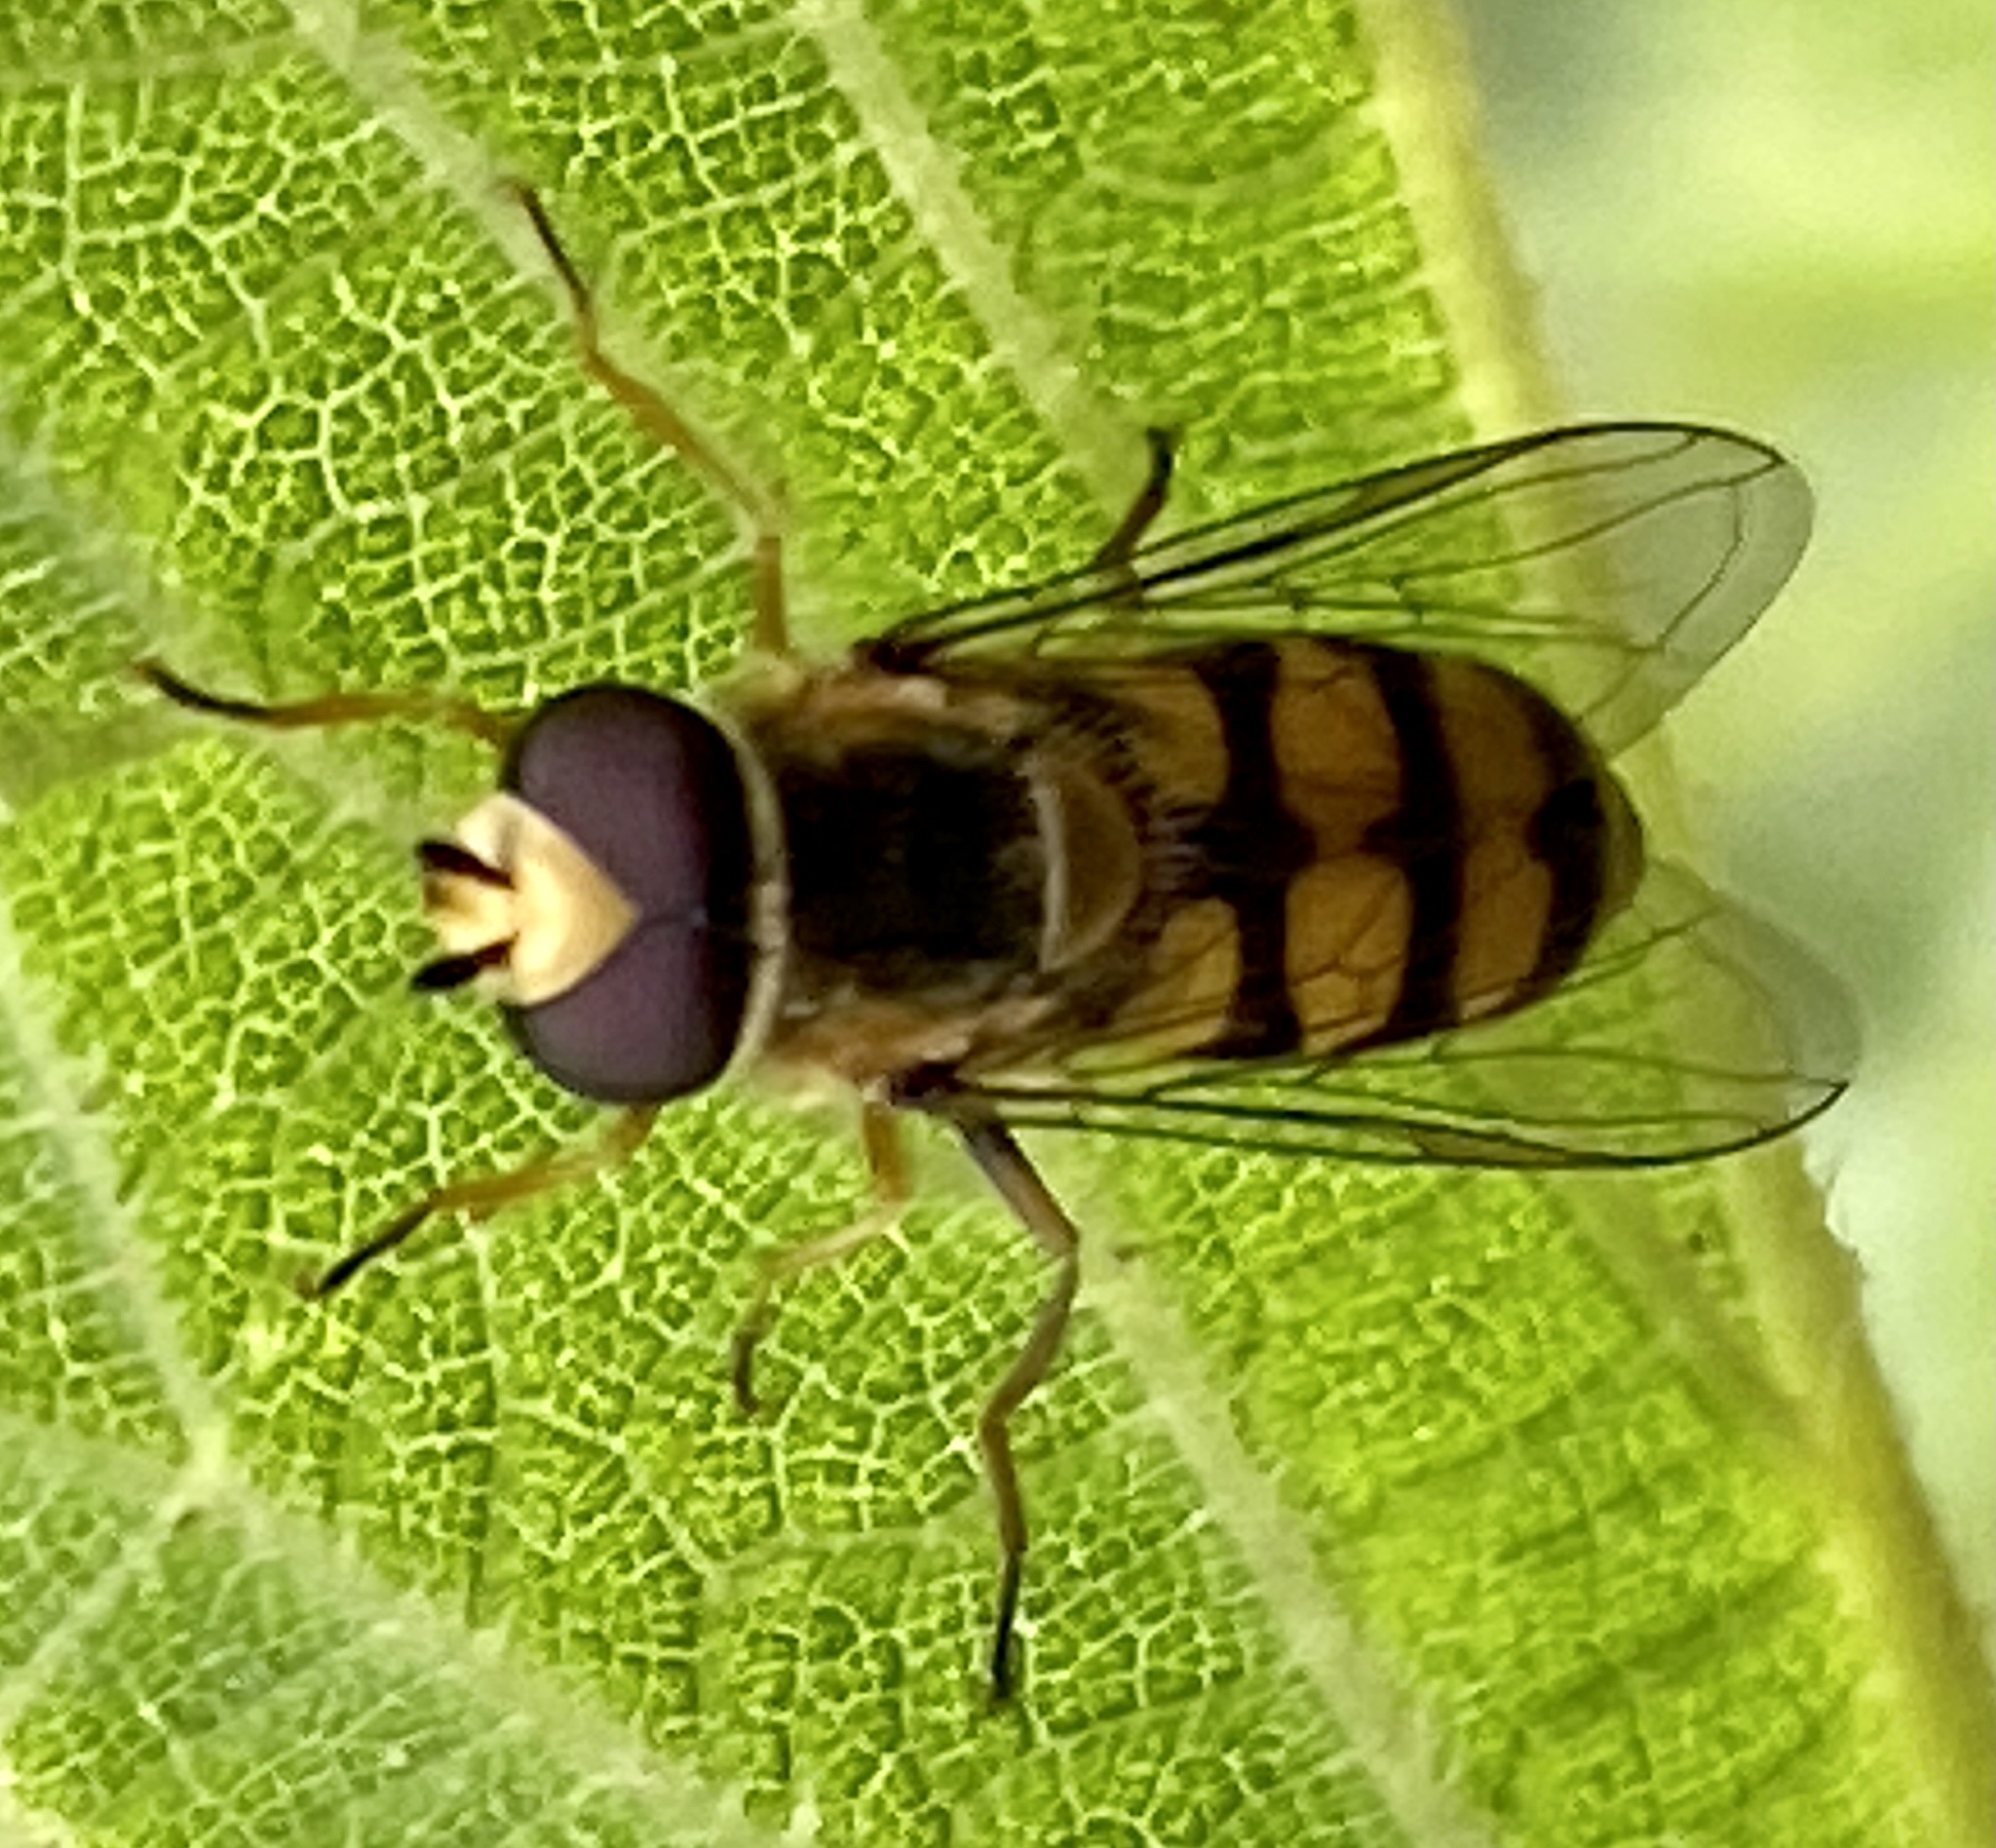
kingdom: Animalia
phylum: Arthropoda
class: Insecta
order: Diptera
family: Syrphidae
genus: Eupeodes
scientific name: Eupeodes corollae
